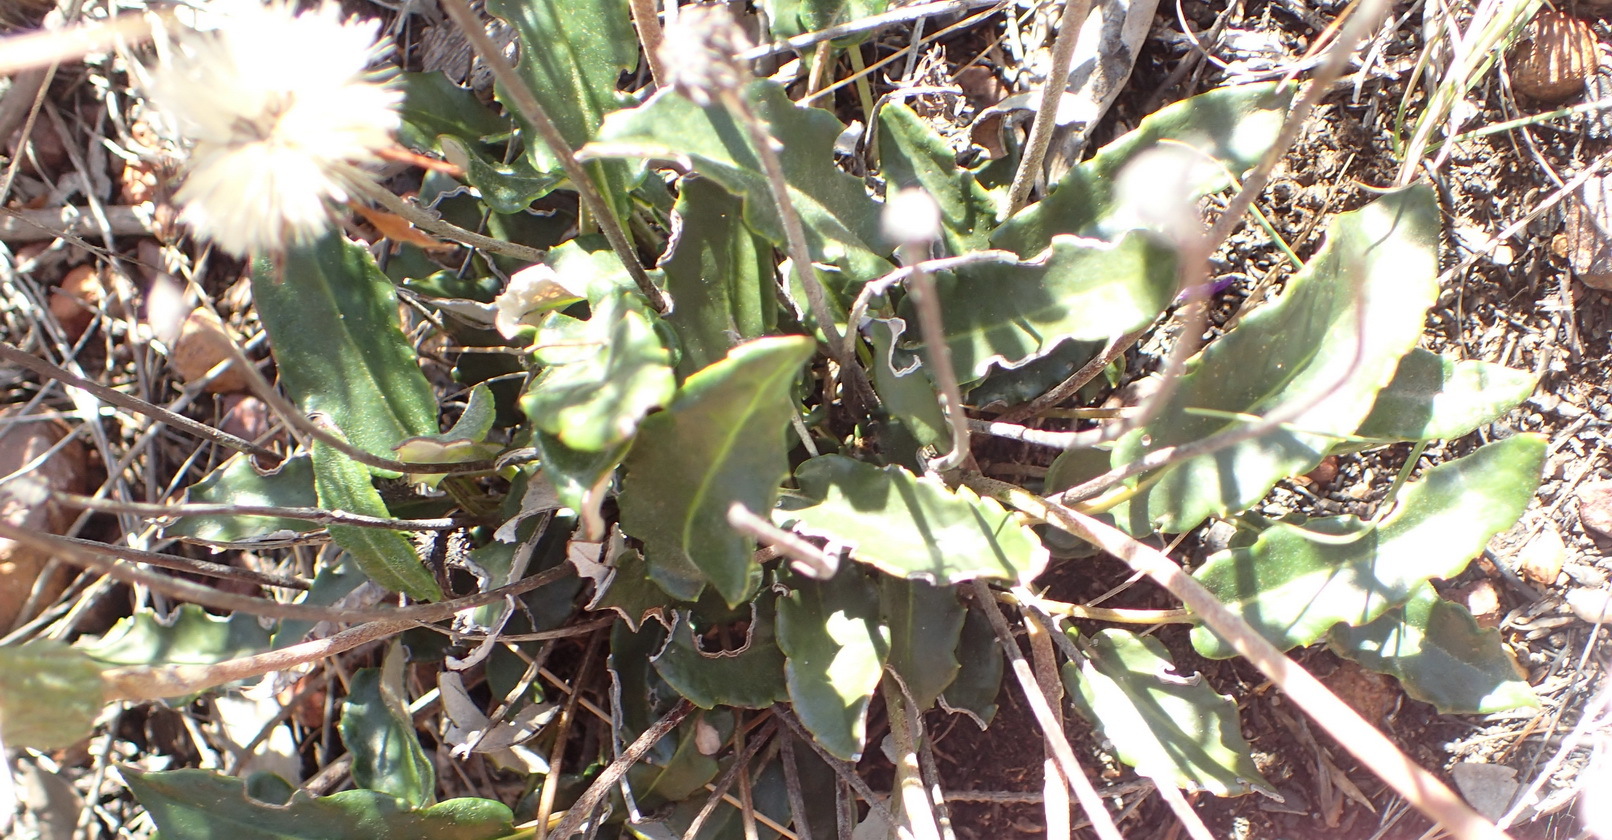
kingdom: Plantae
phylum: Tracheophyta
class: Magnoliopsida
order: Asterales
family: Asteraceae
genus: Gerbera
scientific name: Gerbera serrata
